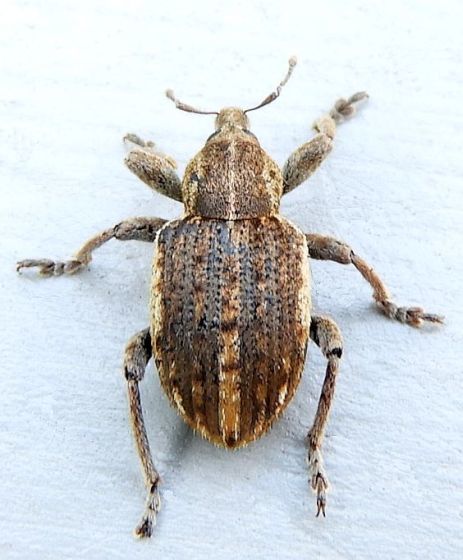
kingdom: Animalia
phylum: Arthropoda
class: Insecta
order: Coleoptera
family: Curculionidae
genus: Brachypera
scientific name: Brachypera zoilus
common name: Clover leaf weevil
